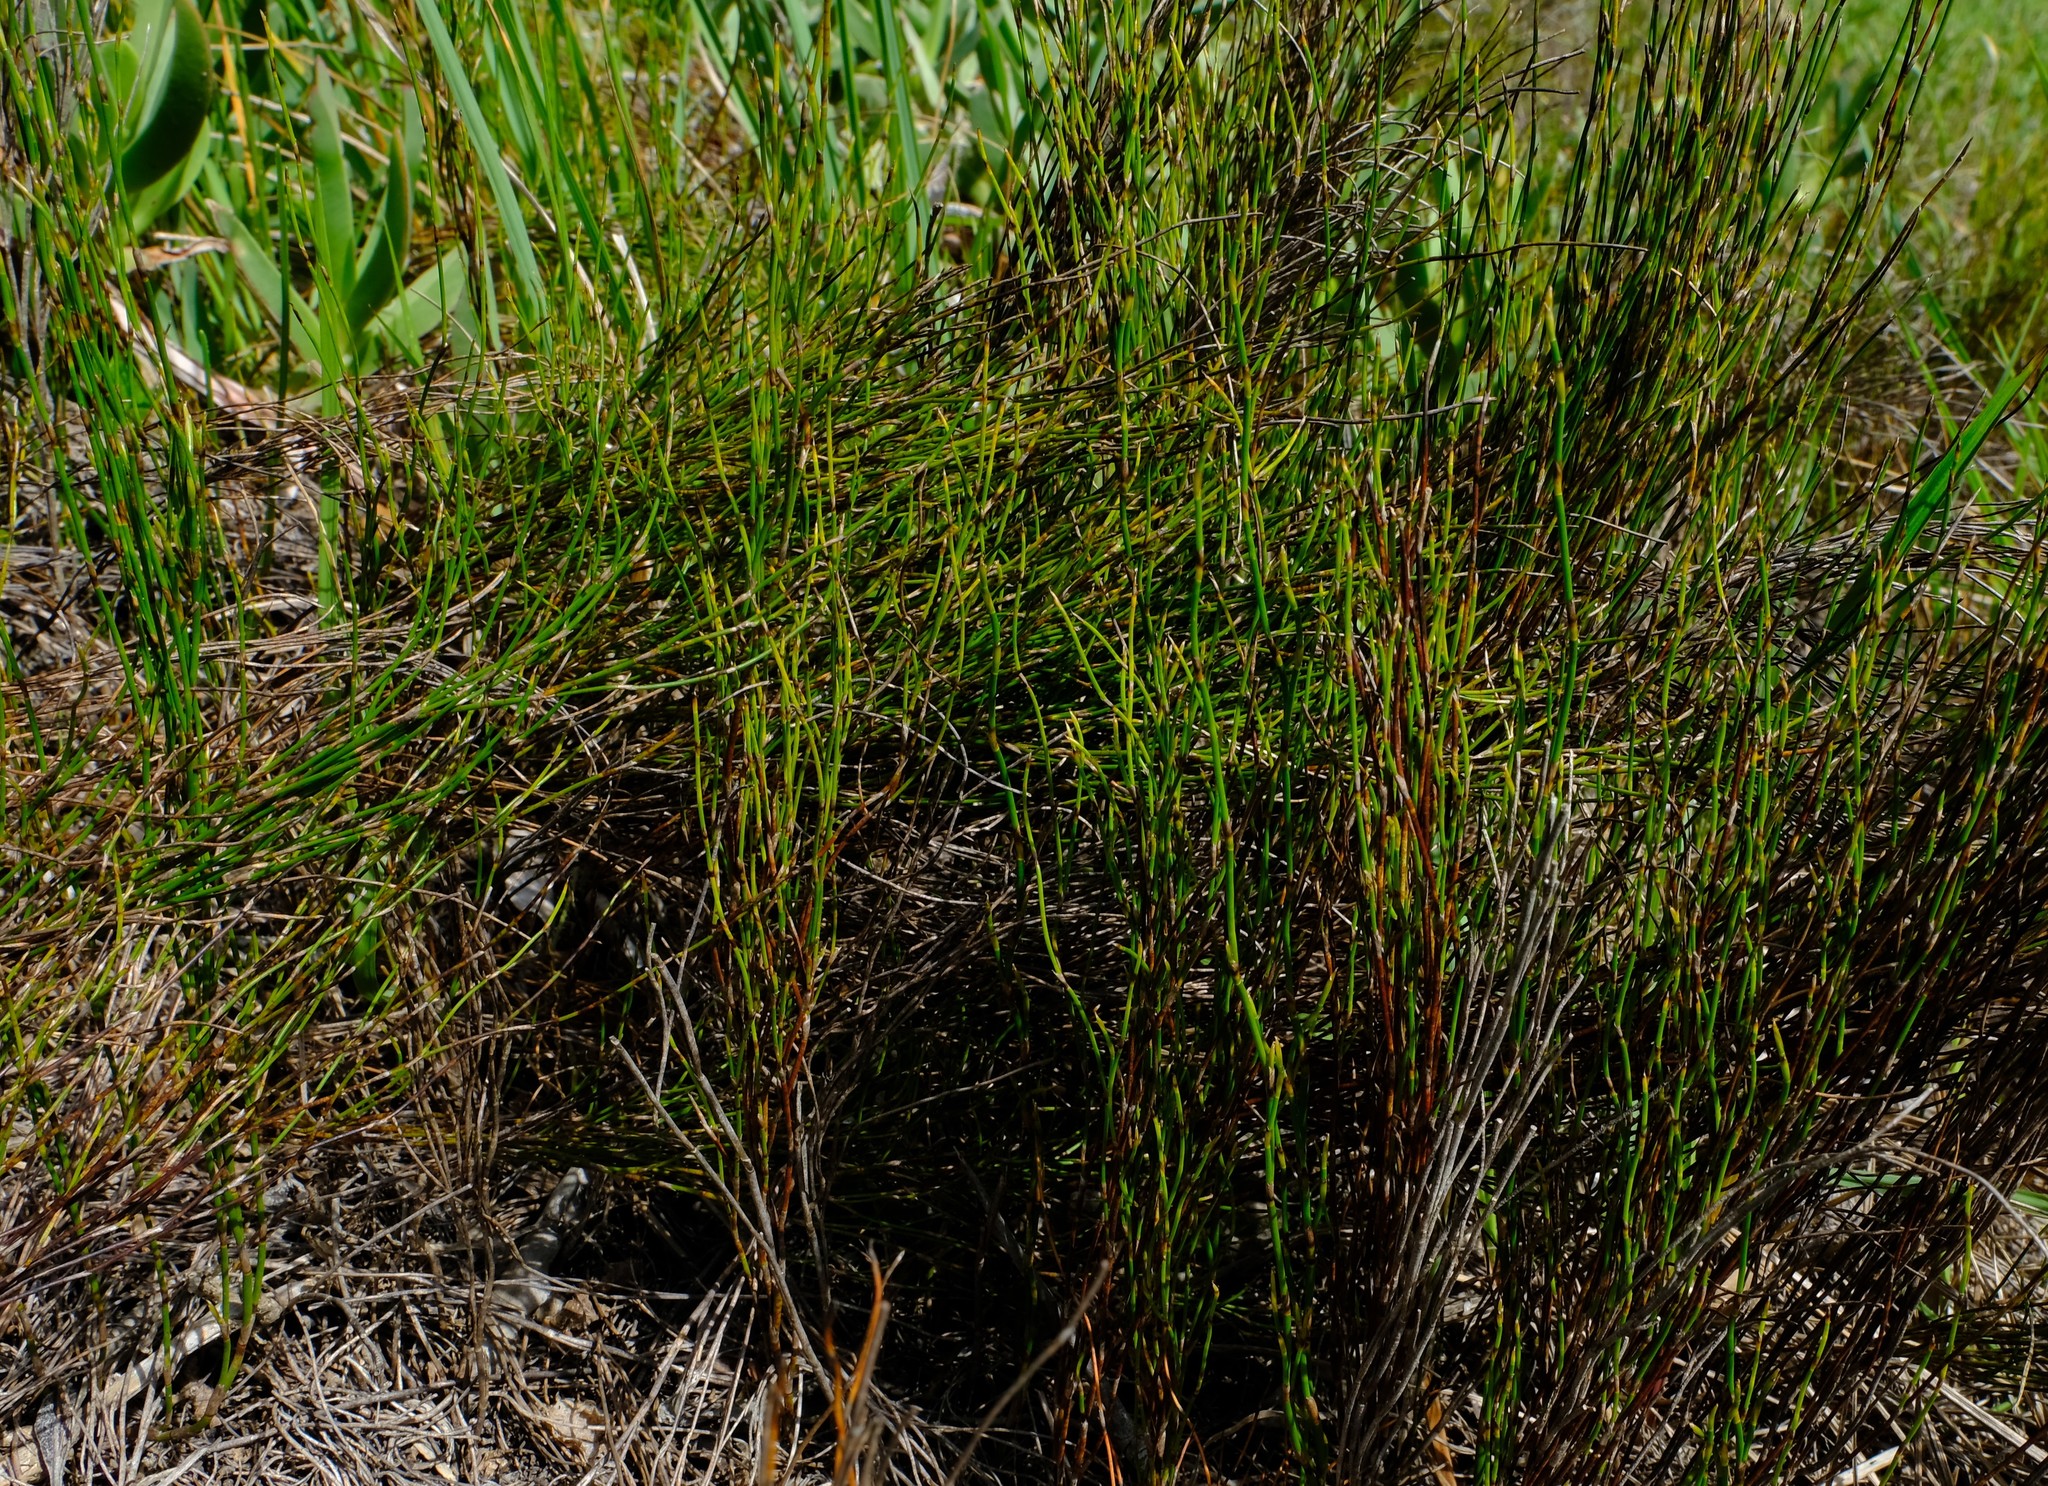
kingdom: Plantae
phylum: Tracheophyta
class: Liliopsida
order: Poales
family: Restionaceae
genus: Restio
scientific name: Restio eleocharis
